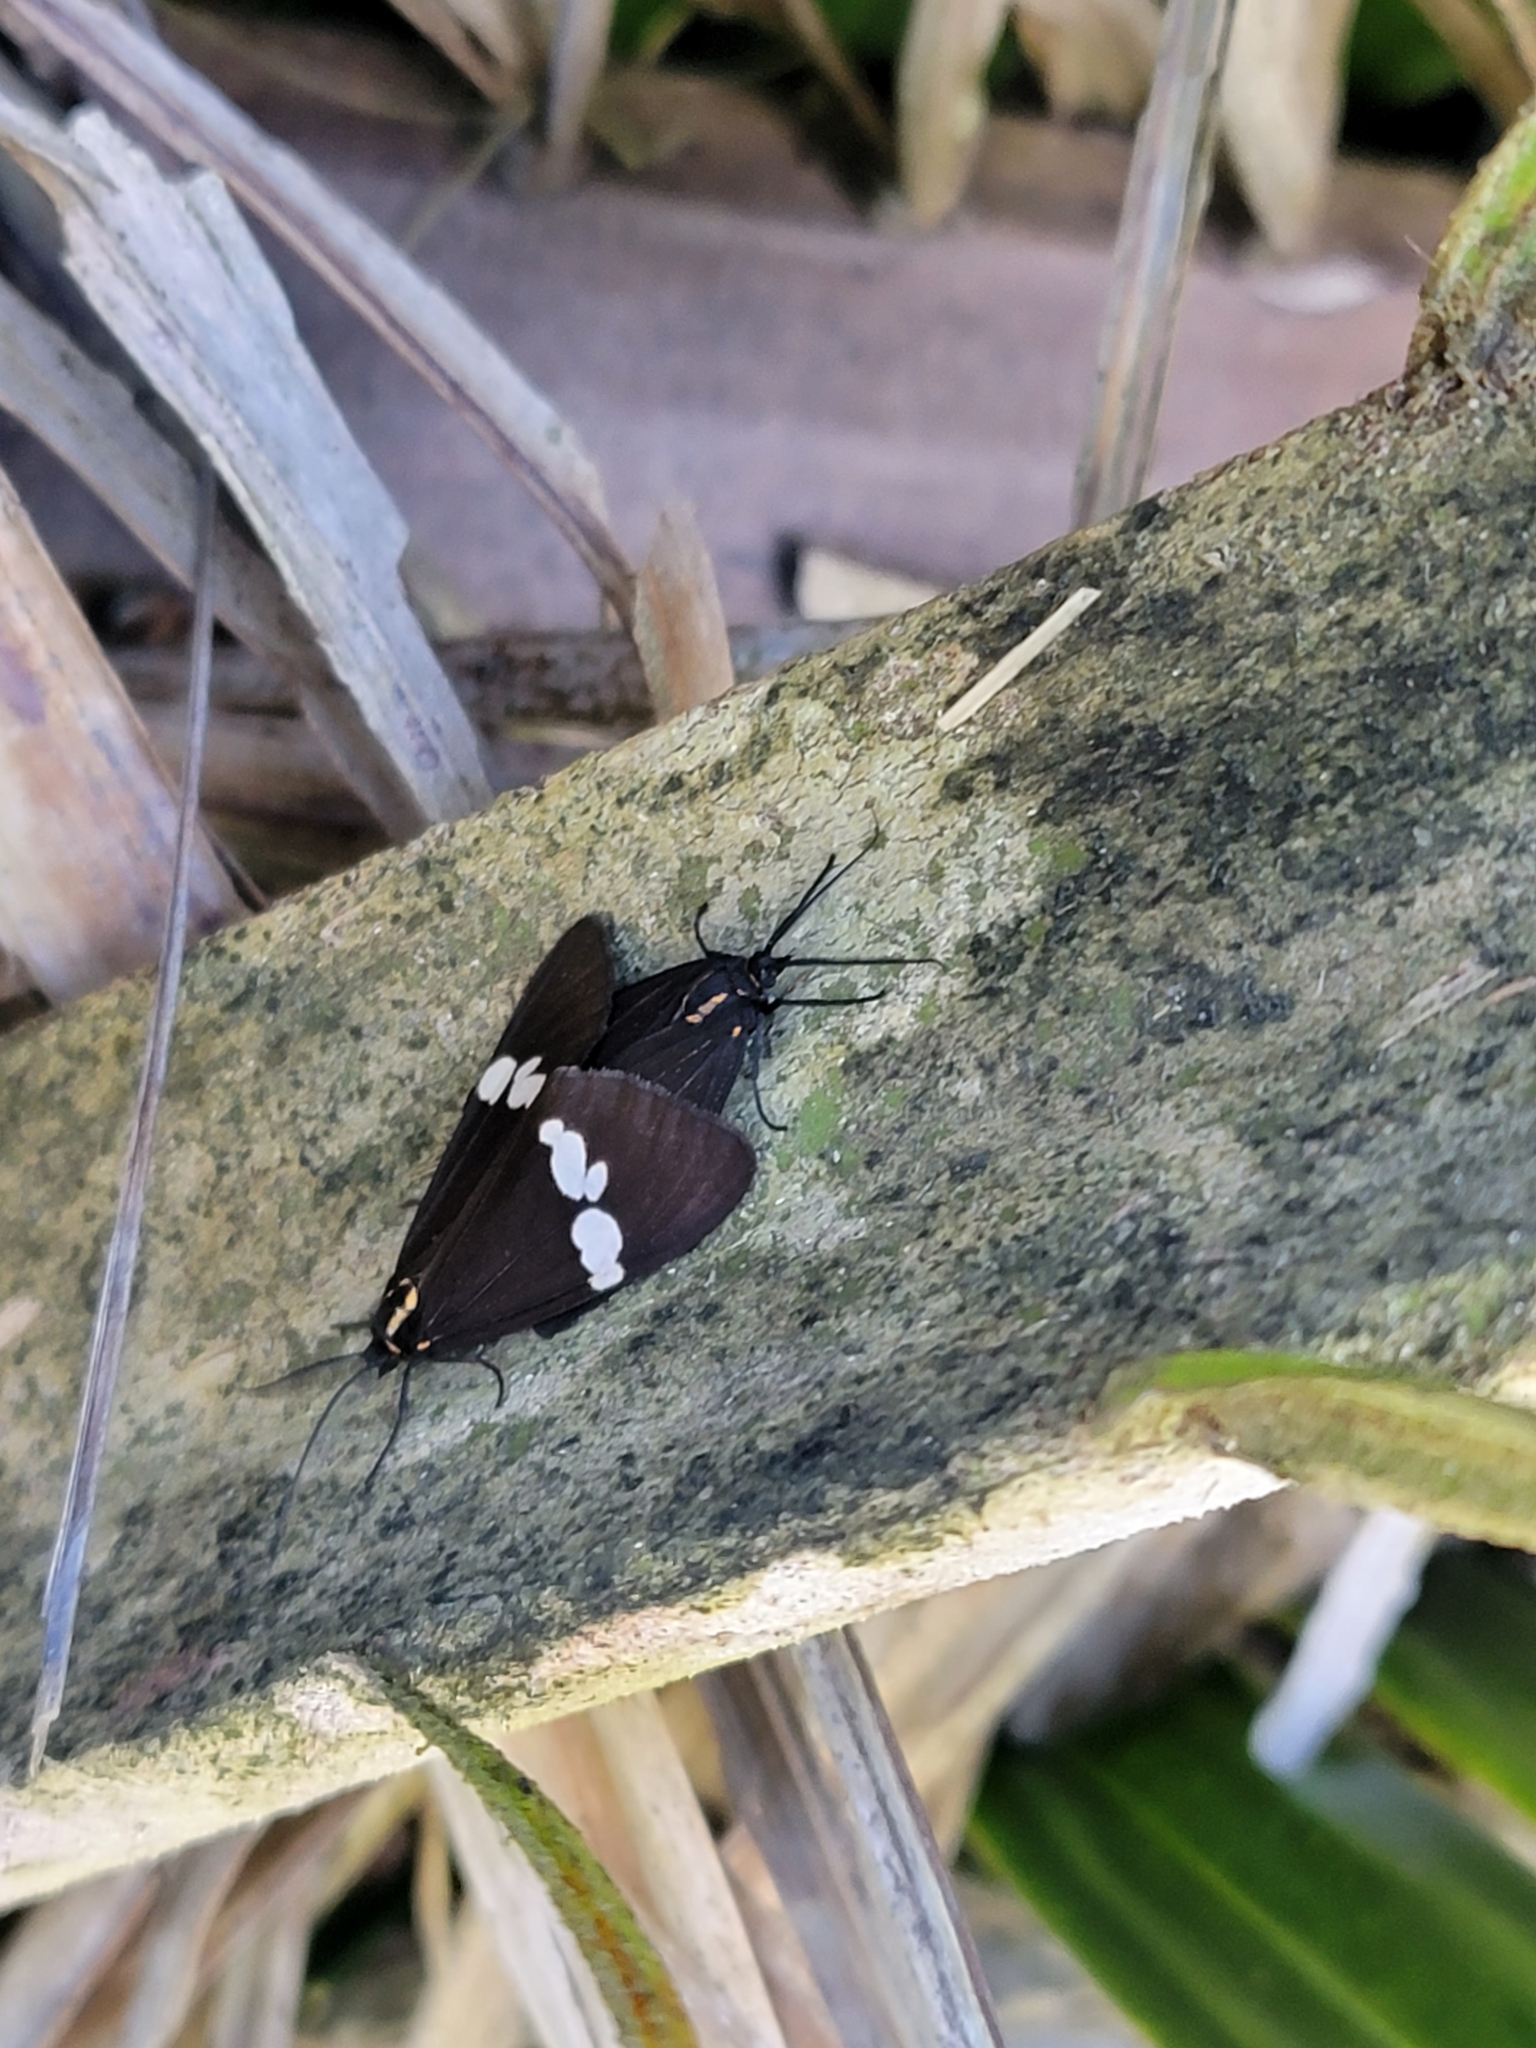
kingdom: Animalia
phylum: Arthropoda
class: Insecta
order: Lepidoptera
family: Erebidae
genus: Nyctemera
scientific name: Nyctemera annulatum
